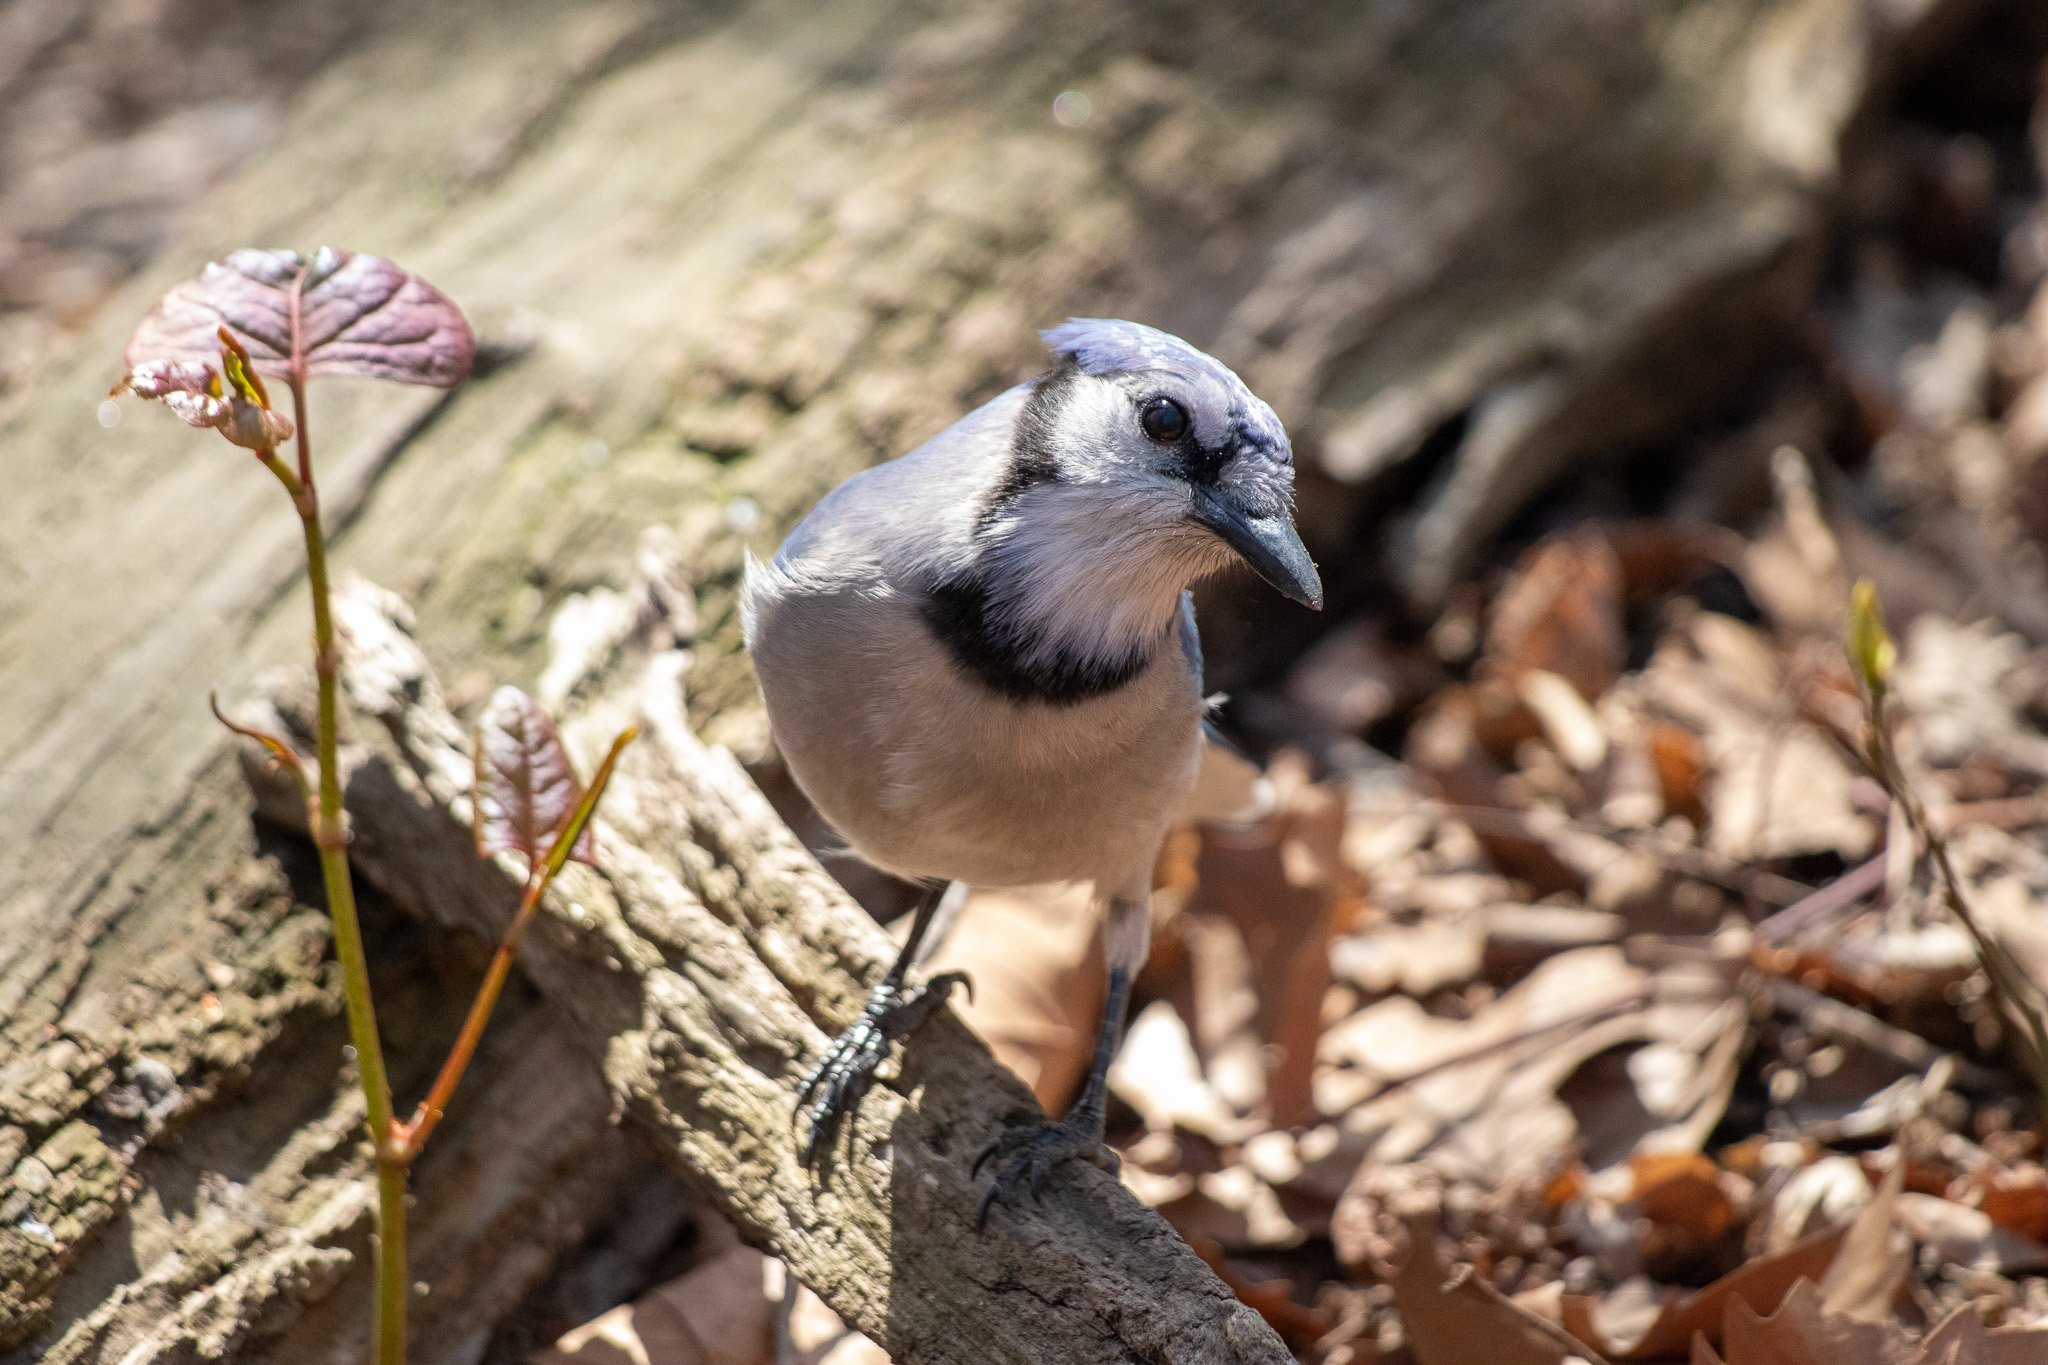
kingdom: Animalia
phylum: Chordata
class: Aves
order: Passeriformes
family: Corvidae
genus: Cyanocitta
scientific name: Cyanocitta cristata
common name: Blue jay
